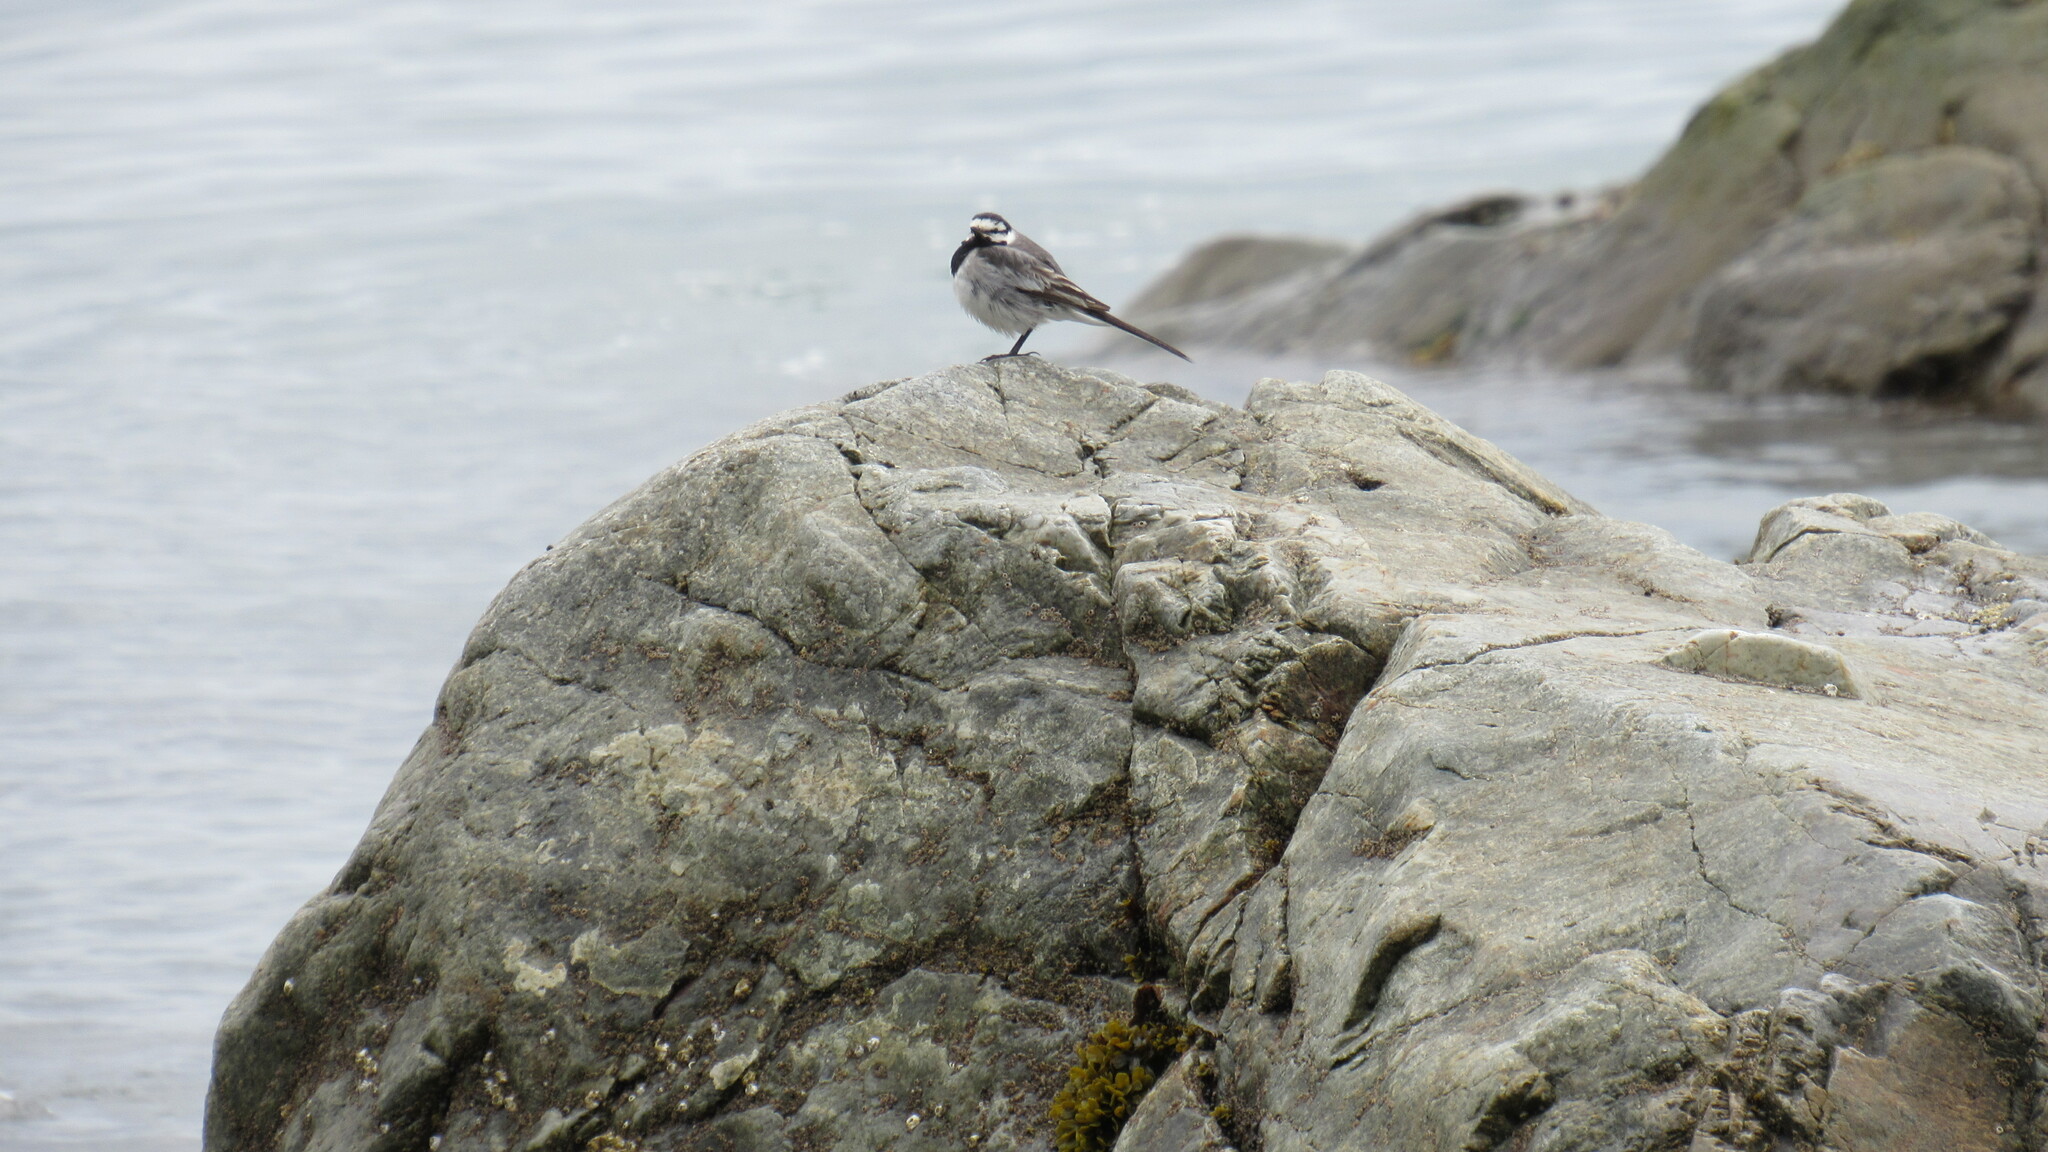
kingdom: Animalia
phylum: Chordata
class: Aves
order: Passeriformes
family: Motacillidae
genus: Motacilla
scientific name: Motacilla alba
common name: White wagtail
